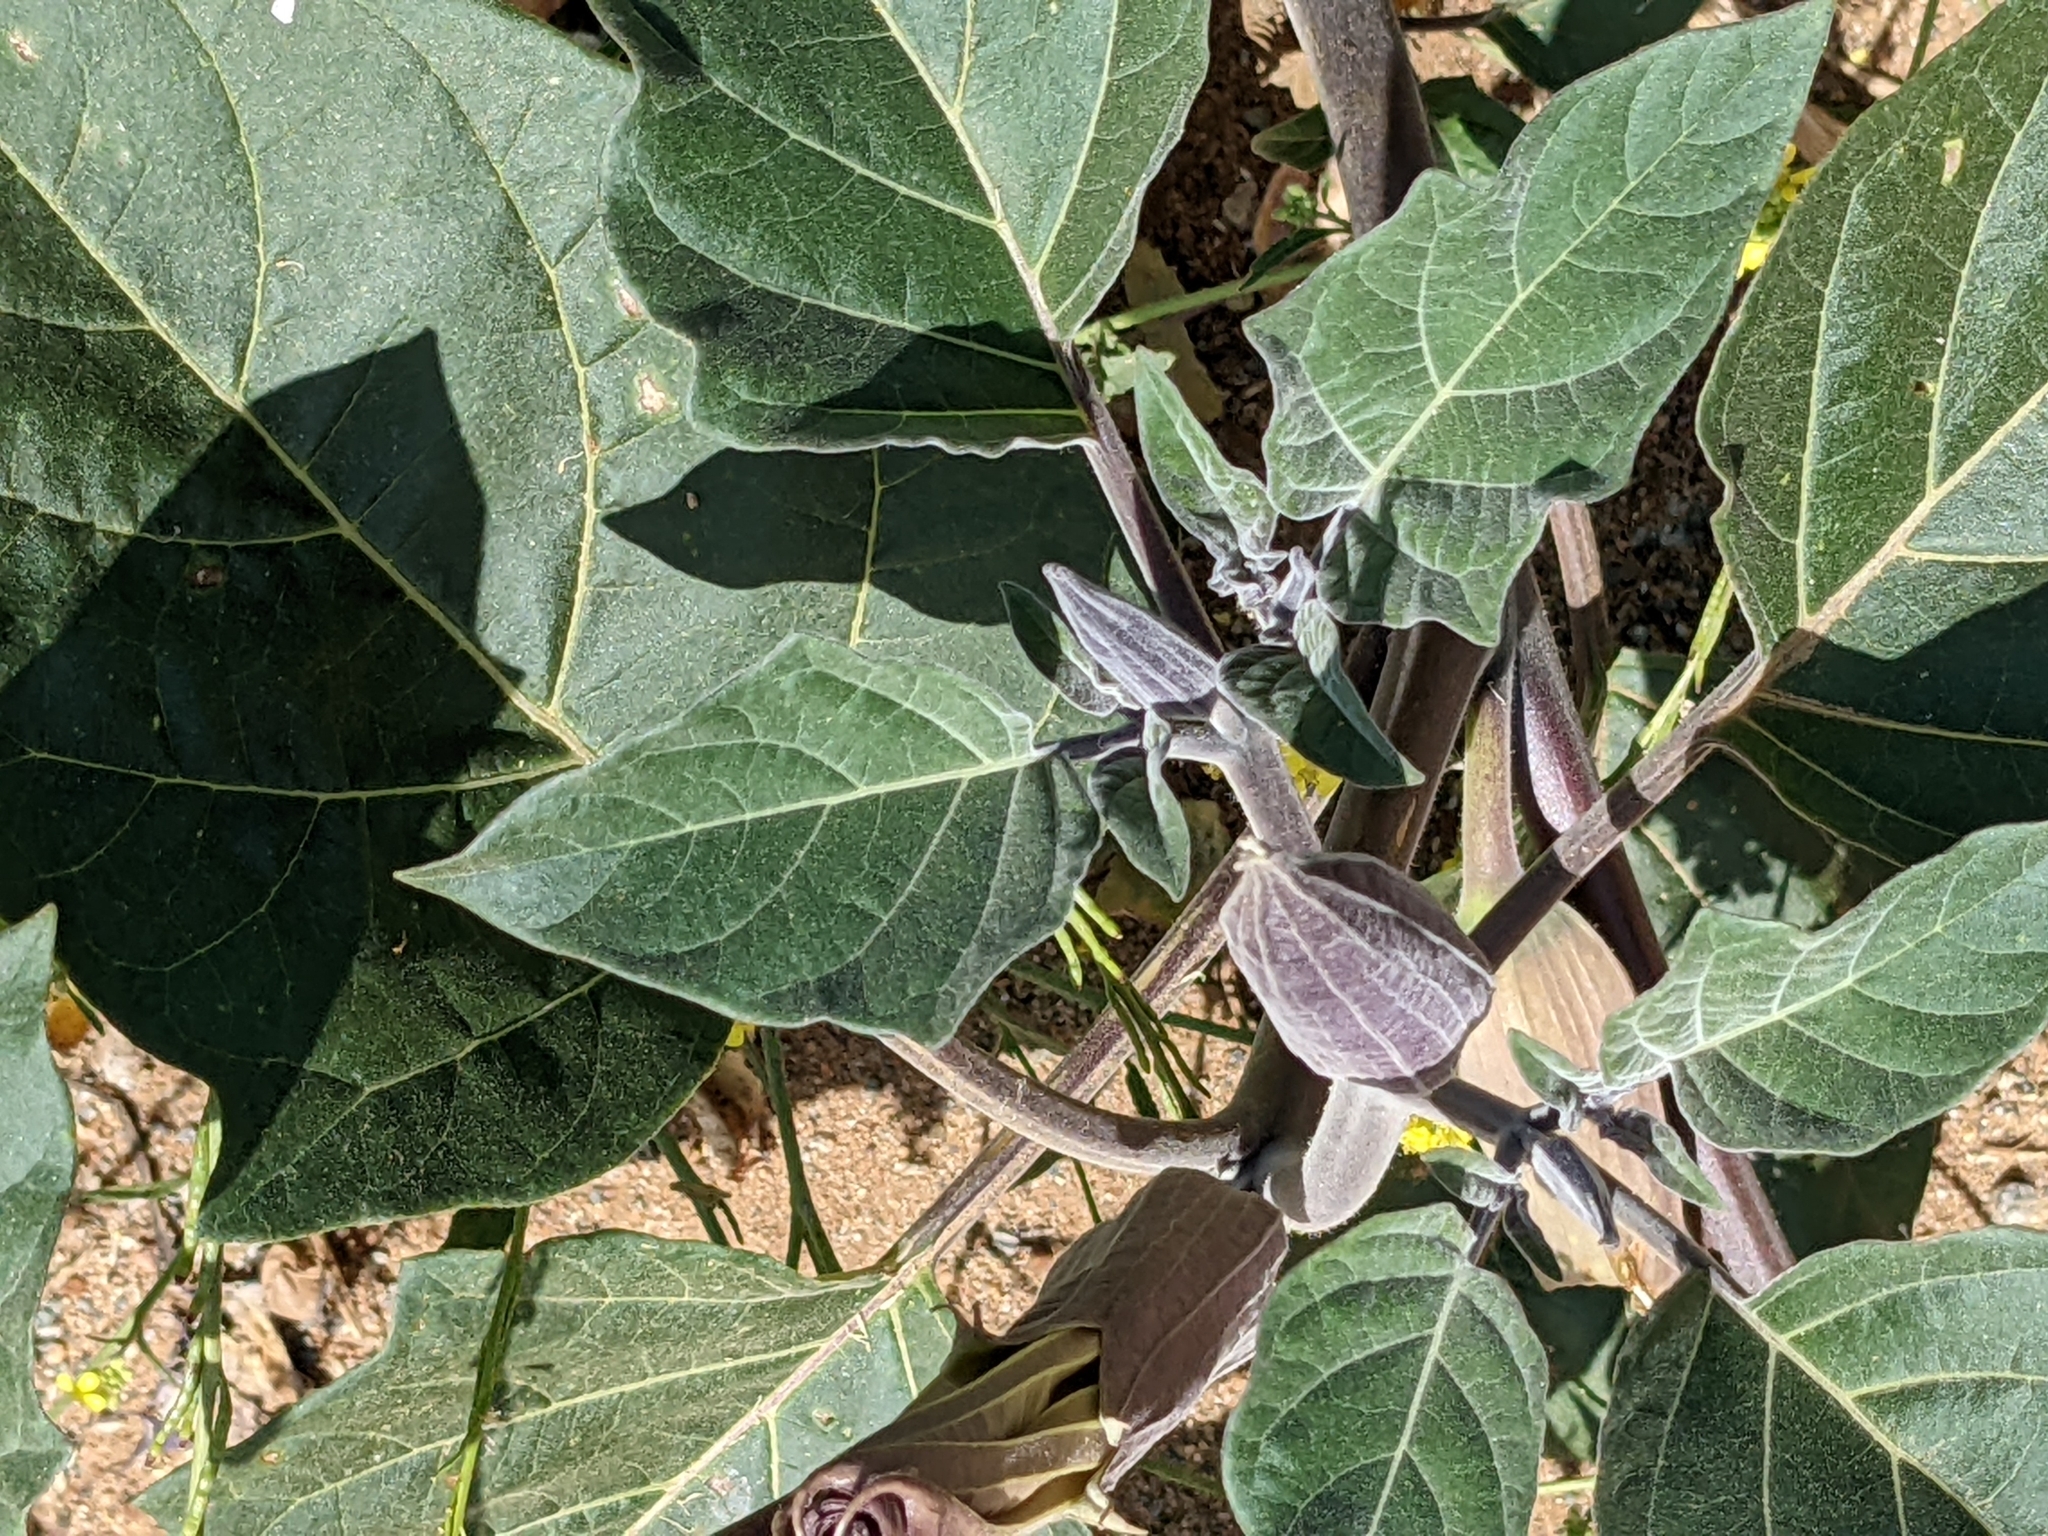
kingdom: Plantae
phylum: Tracheophyta
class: Magnoliopsida
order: Solanales
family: Solanaceae
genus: Datura
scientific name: Datura wrightii
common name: Sacred thorn-apple
